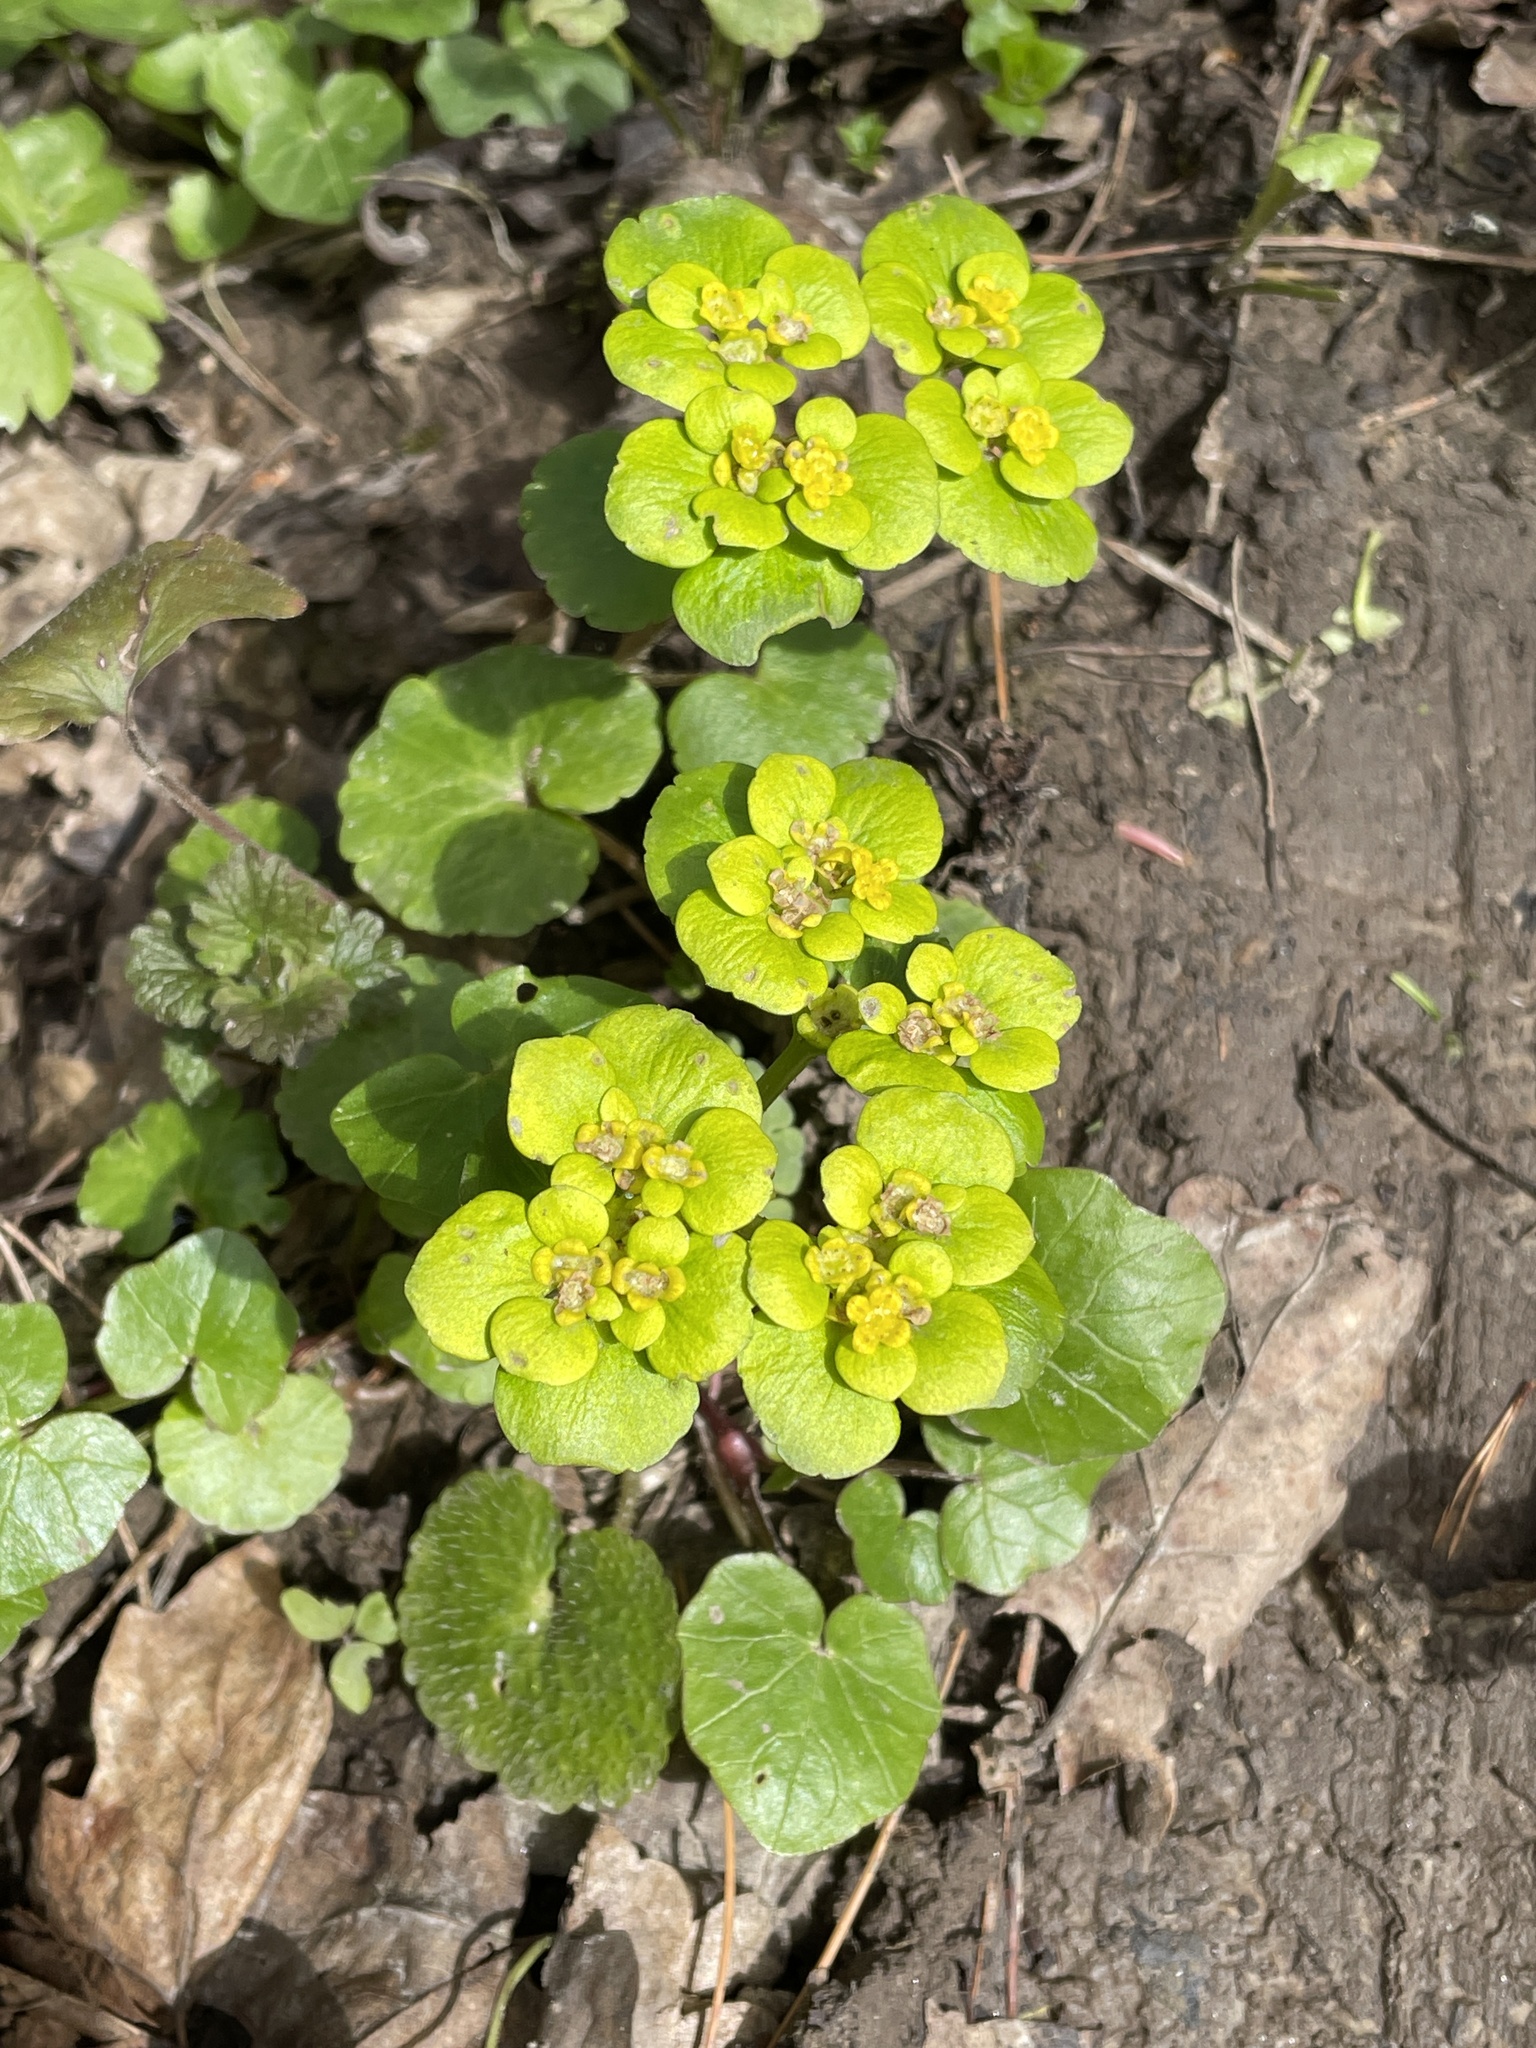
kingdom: Plantae
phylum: Tracheophyta
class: Magnoliopsida
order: Saxifragales
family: Saxifragaceae
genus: Chrysosplenium
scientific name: Chrysosplenium alternifolium
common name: Alternate-leaved golden-saxifrage
